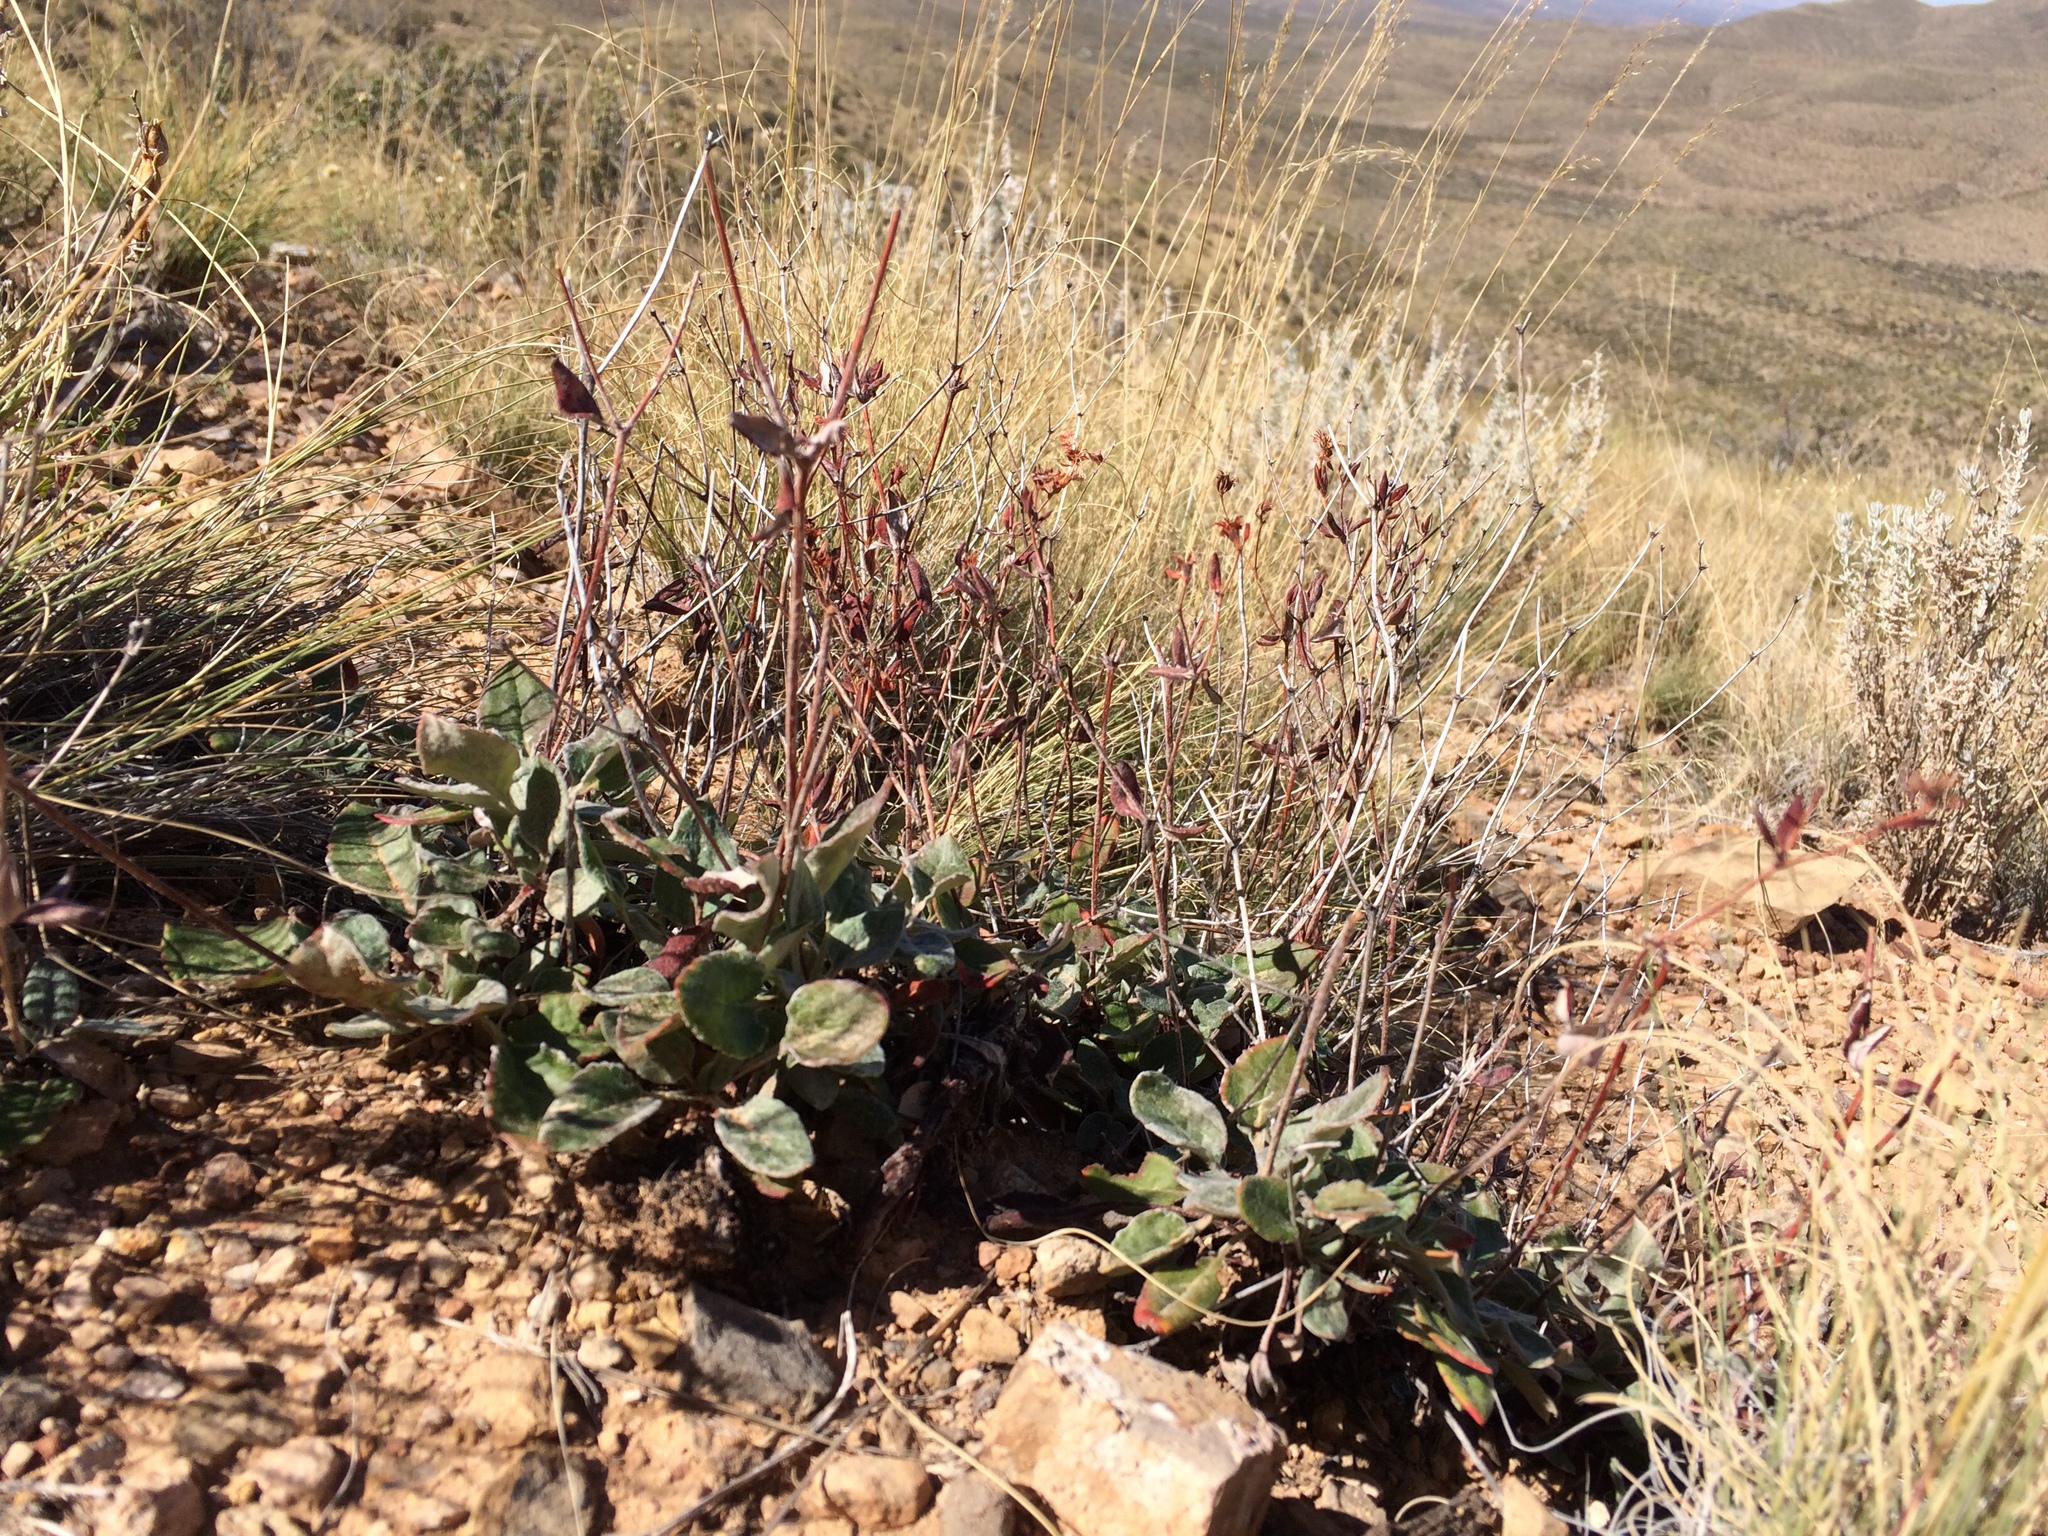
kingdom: Plantae
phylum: Tracheophyta
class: Magnoliopsida
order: Caryophyllales
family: Polygonaceae
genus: Eriogonum
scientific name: Eriogonum jamesii
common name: Antelope-sage
